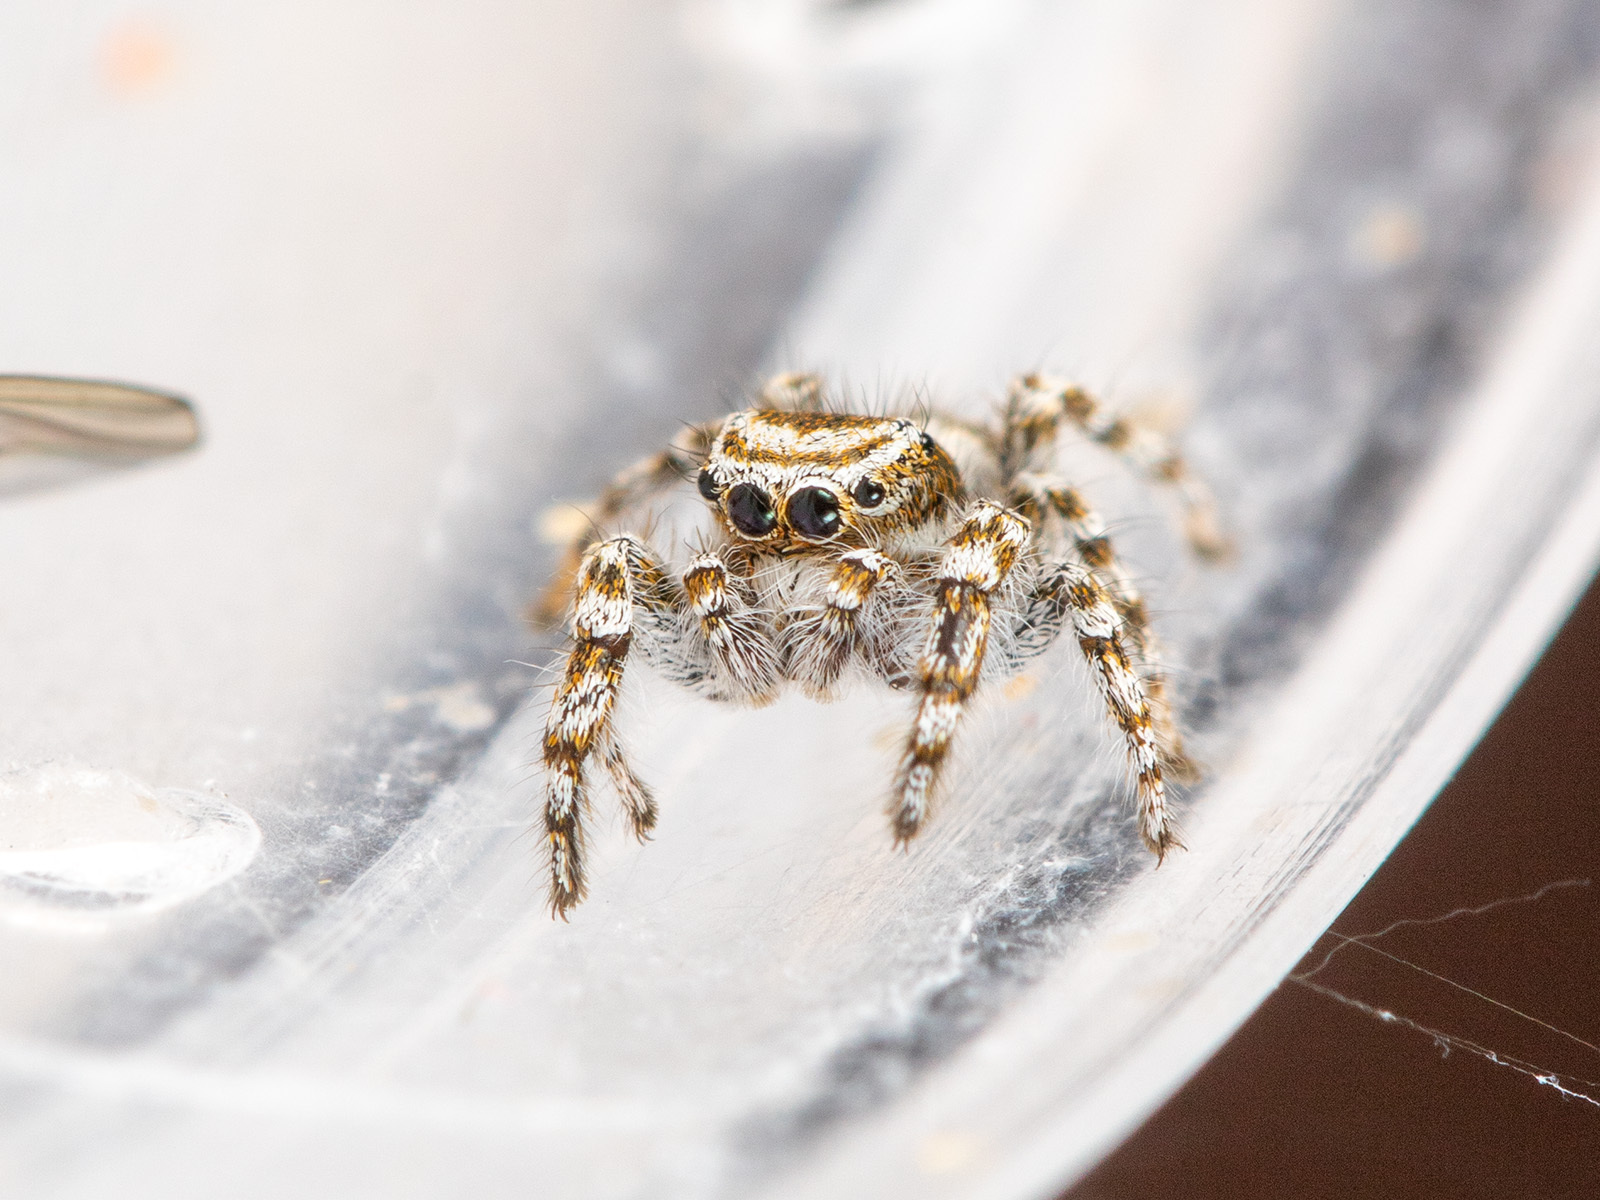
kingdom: Animalia
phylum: Arthropoda
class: Arachnida
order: Araneae
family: Salticidae
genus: Pseudomogrus
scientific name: Pseudomogrus dalaensis
